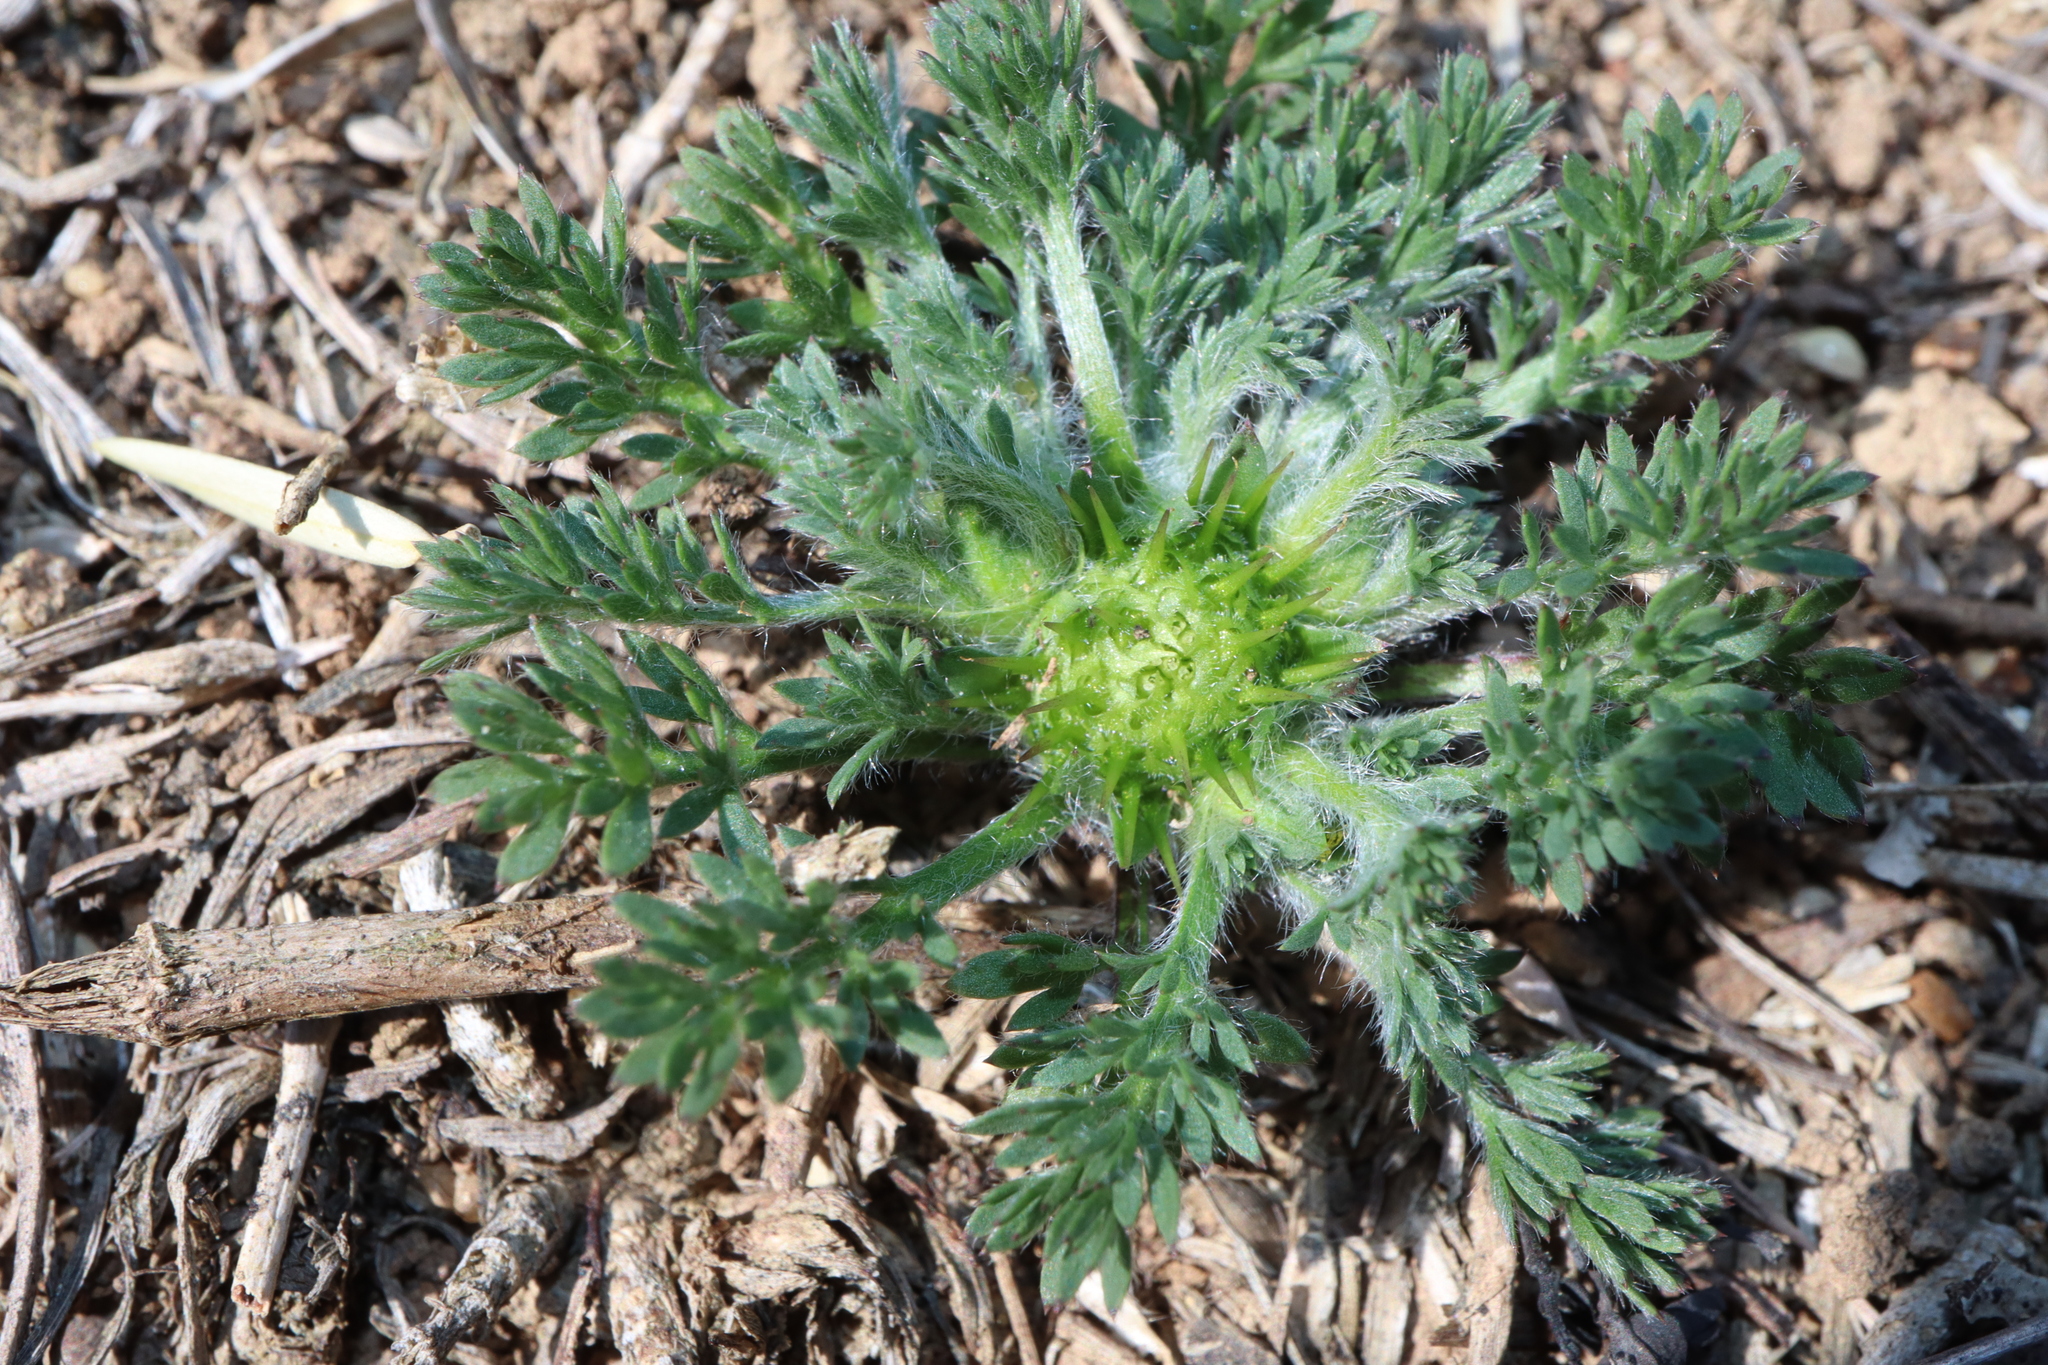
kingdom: Plantae
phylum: Tracheophyta
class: Magnoliopsida
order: Asterales
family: Asteraceae
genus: Soliva
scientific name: Soliva sessilis
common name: Field burrweed
